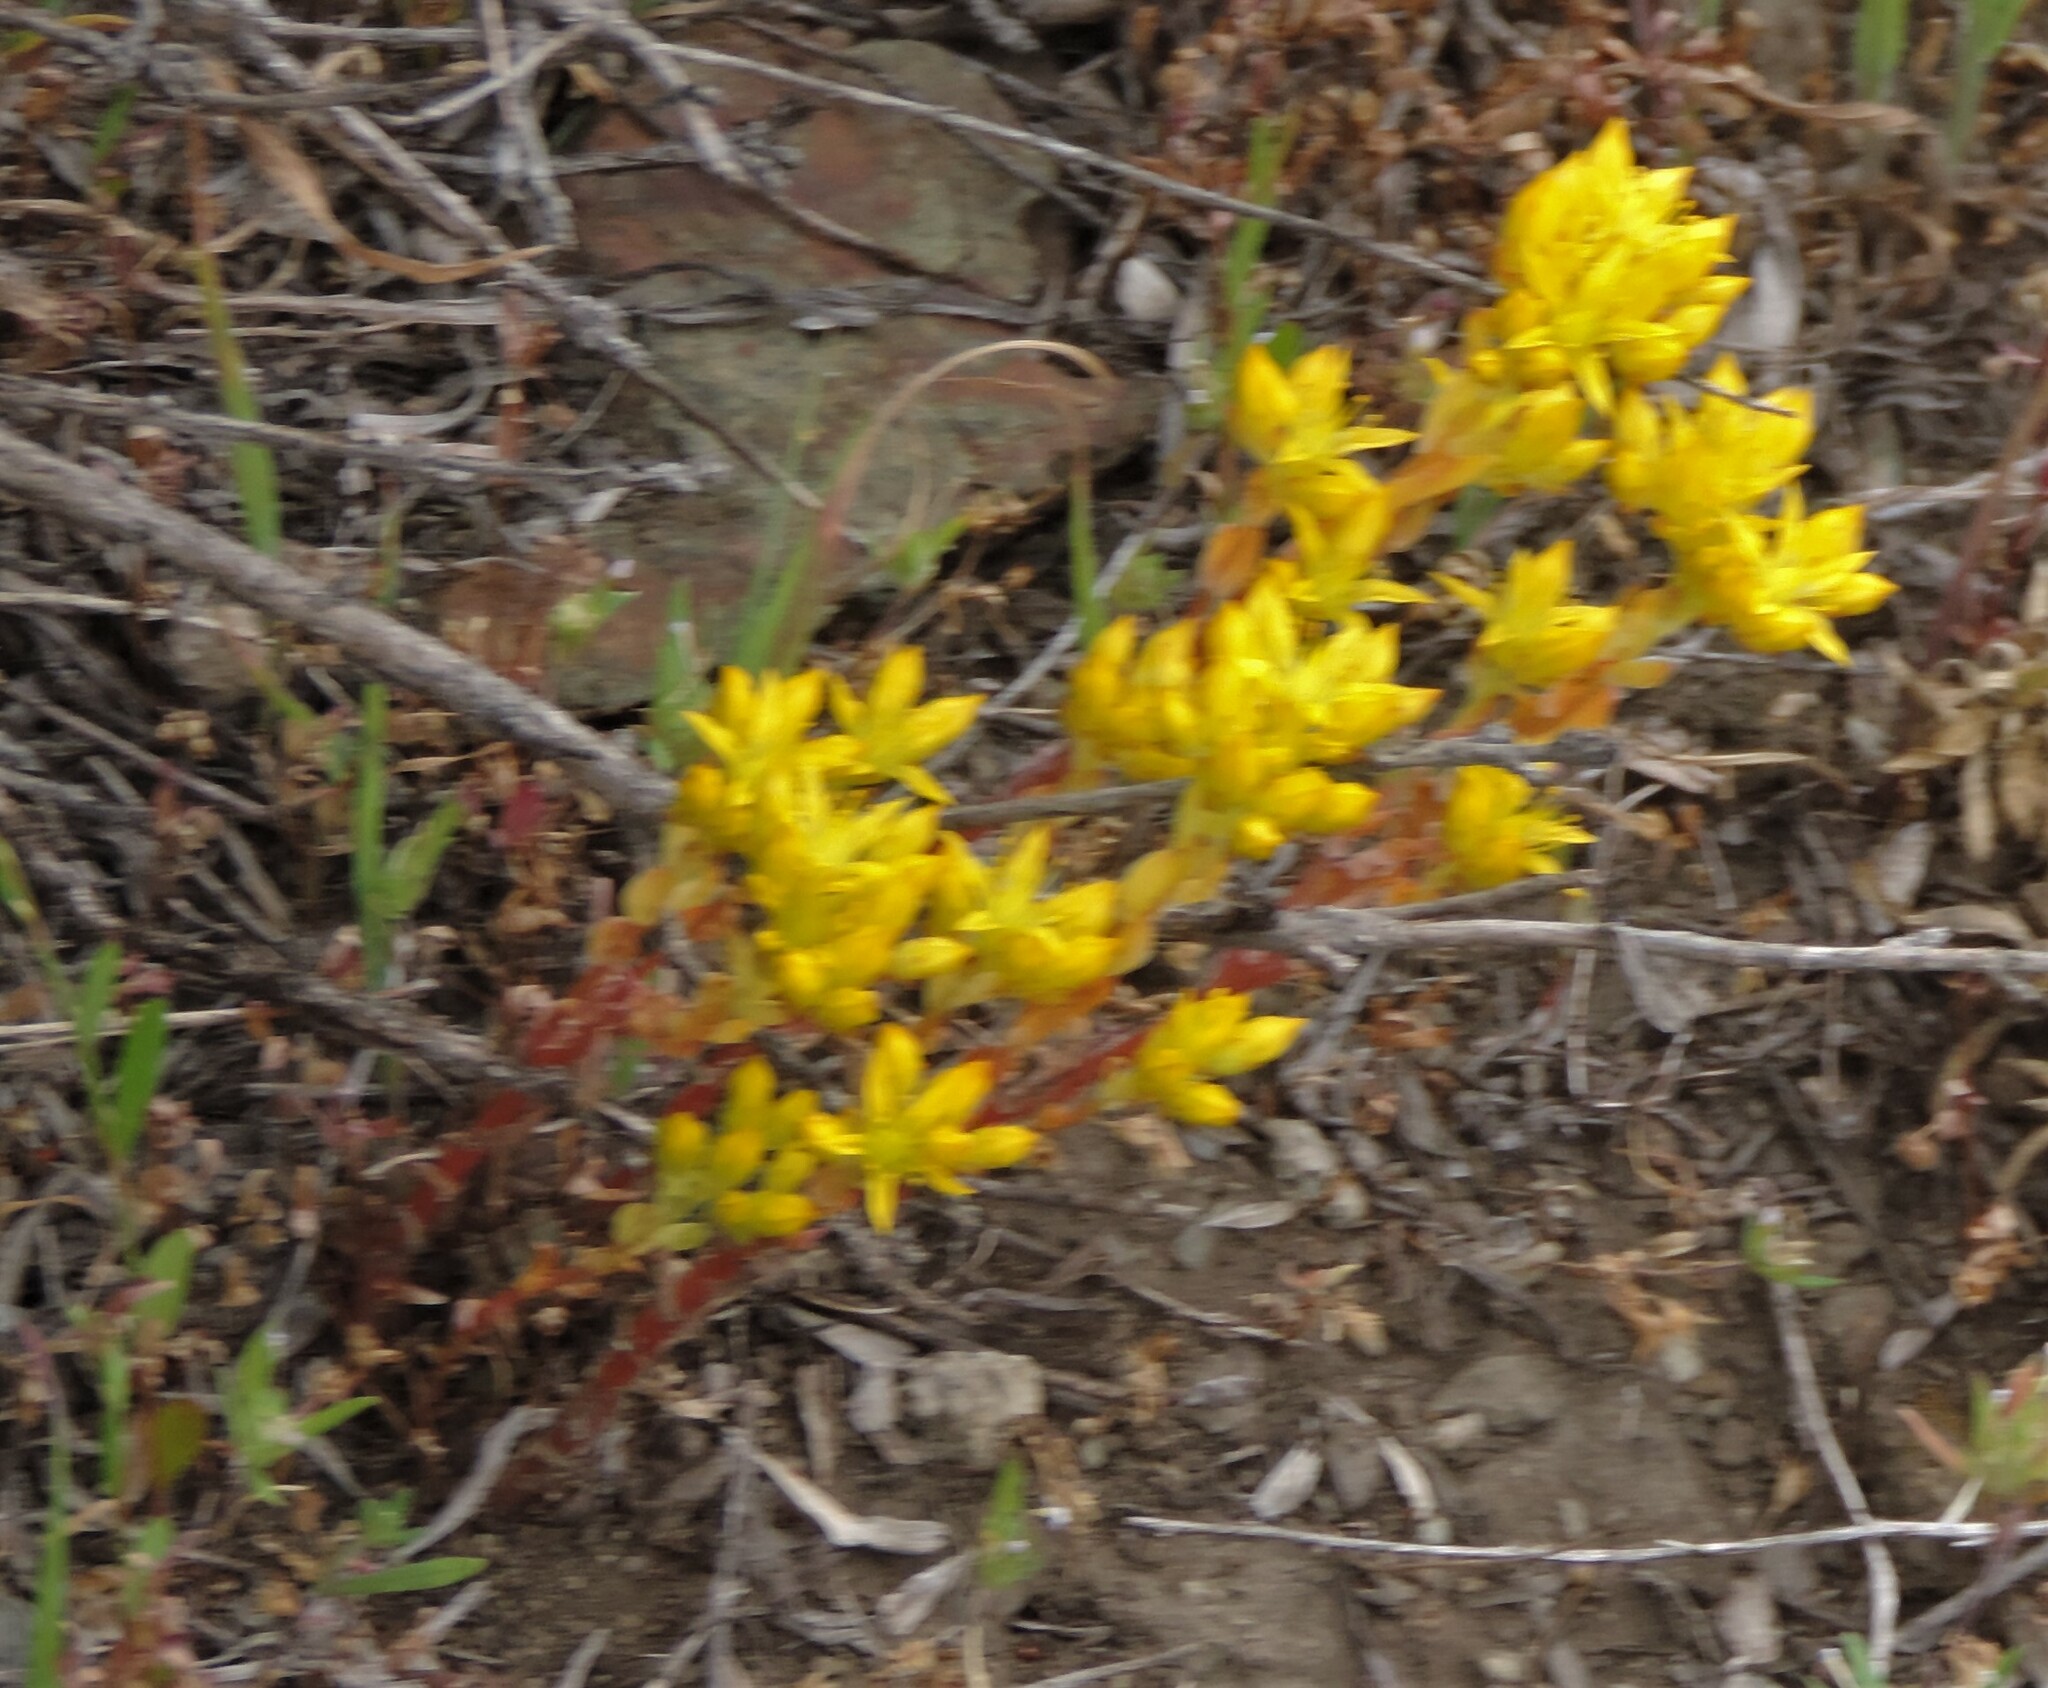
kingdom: Plantae
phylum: Tracheophyta
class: Magnoliopsida
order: Saxifragales
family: Crassulaceae
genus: Sedum
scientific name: Sedum lanceolatum
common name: Common stonecrop
